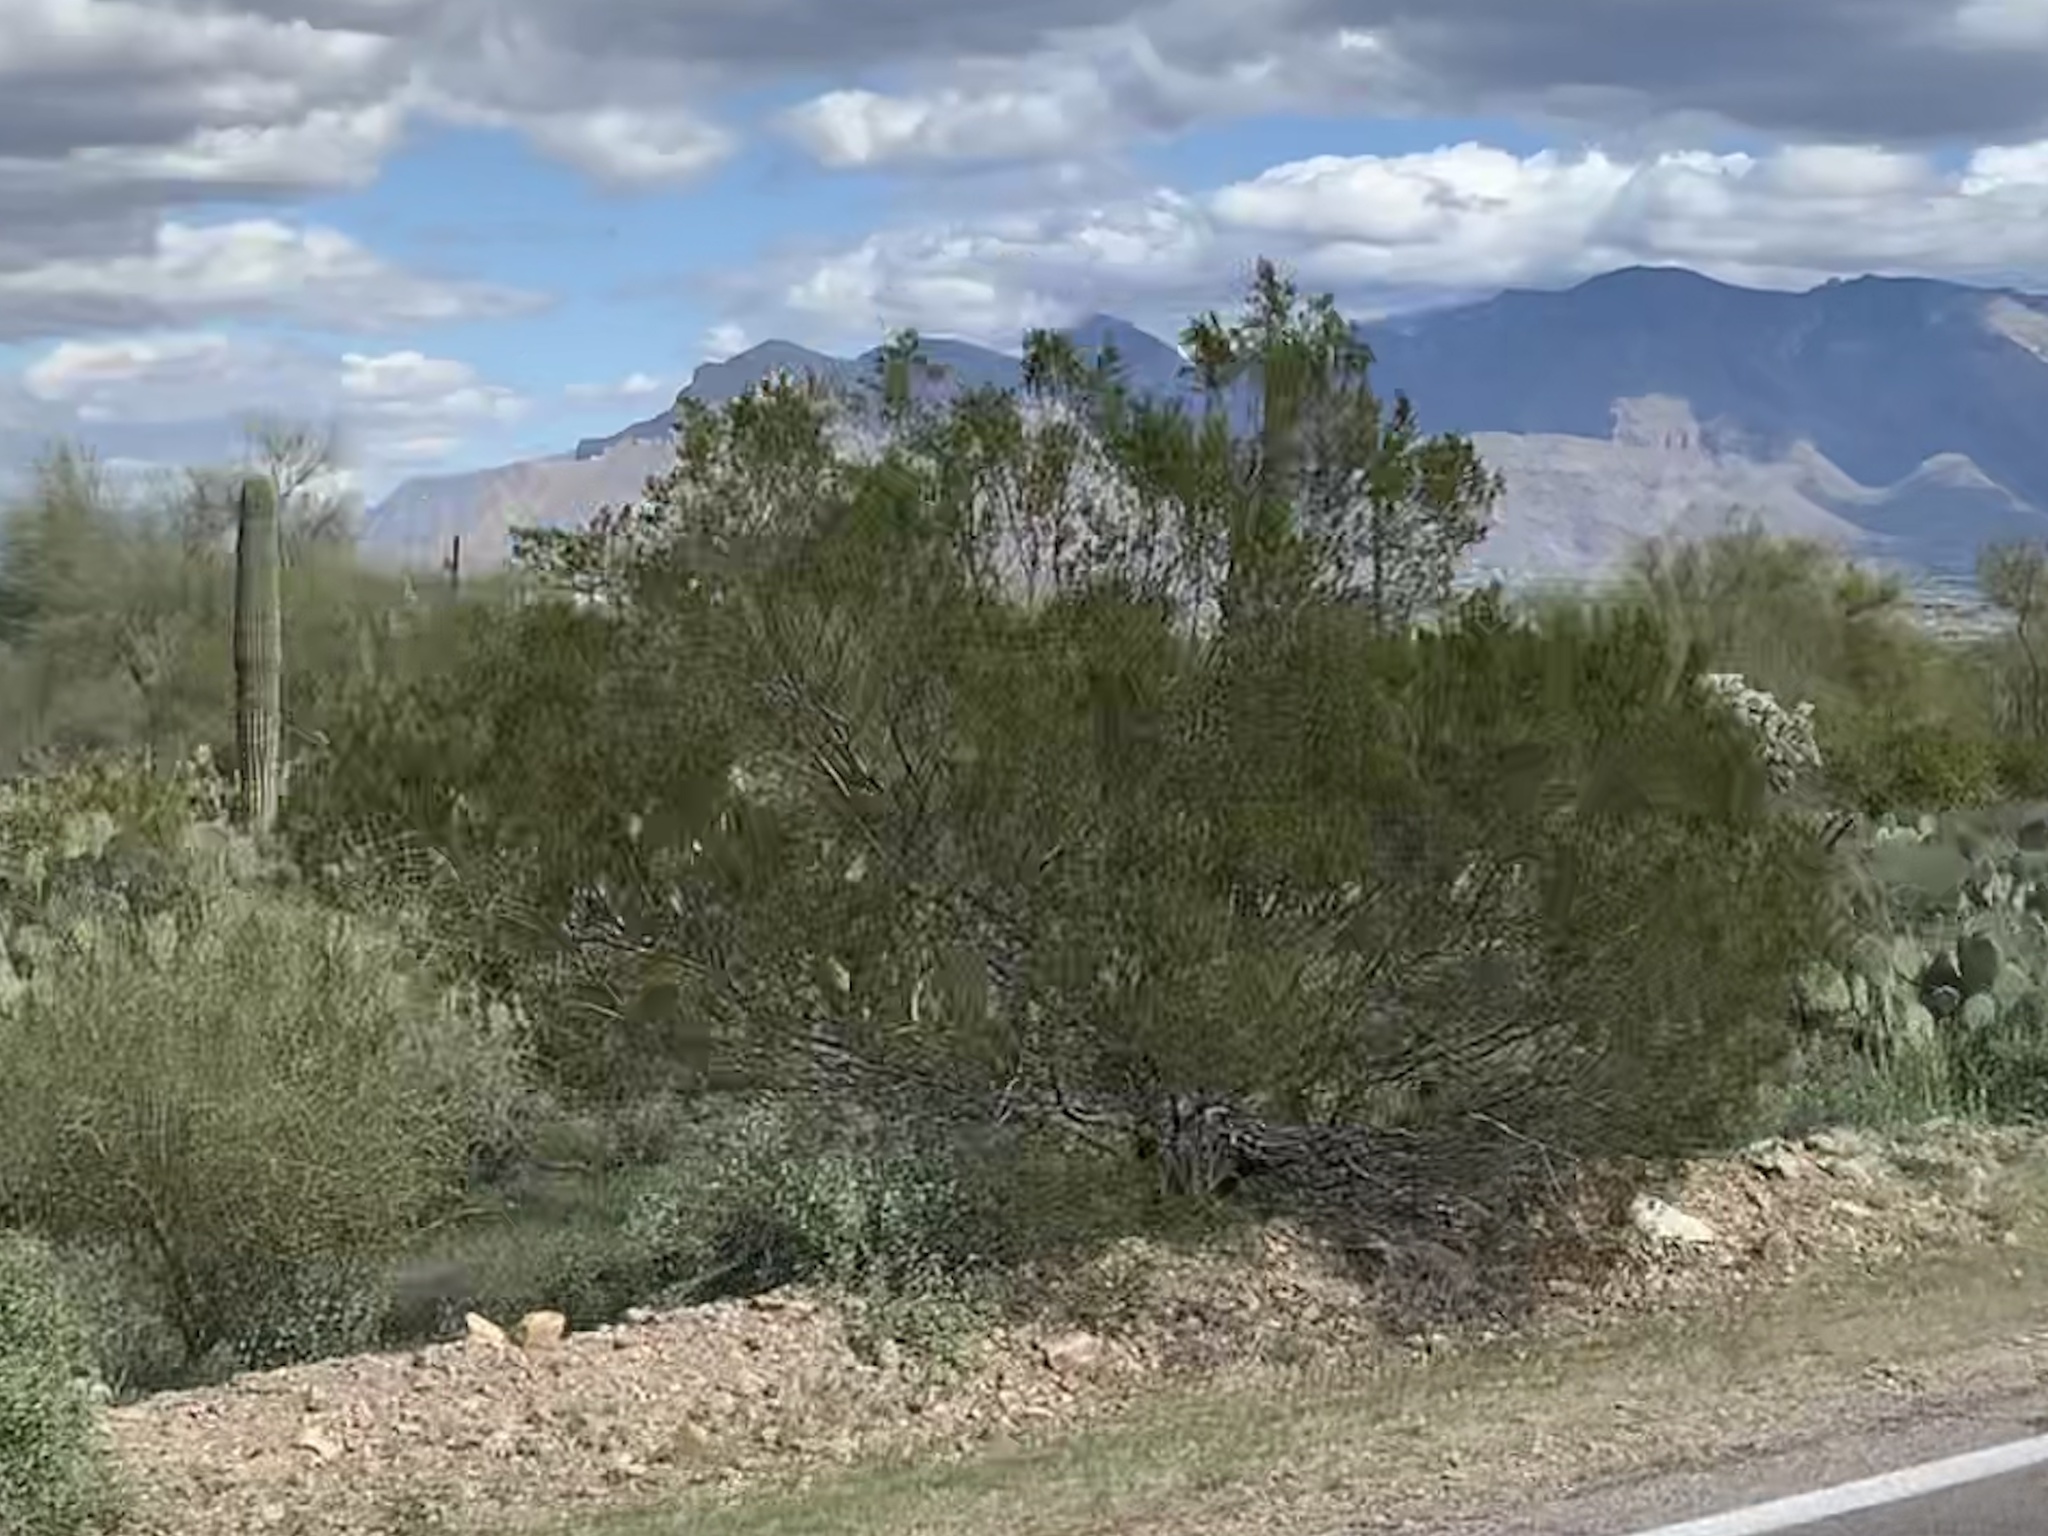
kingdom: Plantae
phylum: Tracheophyta
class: Magnoliopsida
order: Zygophyllales
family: Zygophyllaceae
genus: Larrea
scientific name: Larrea tridentata
